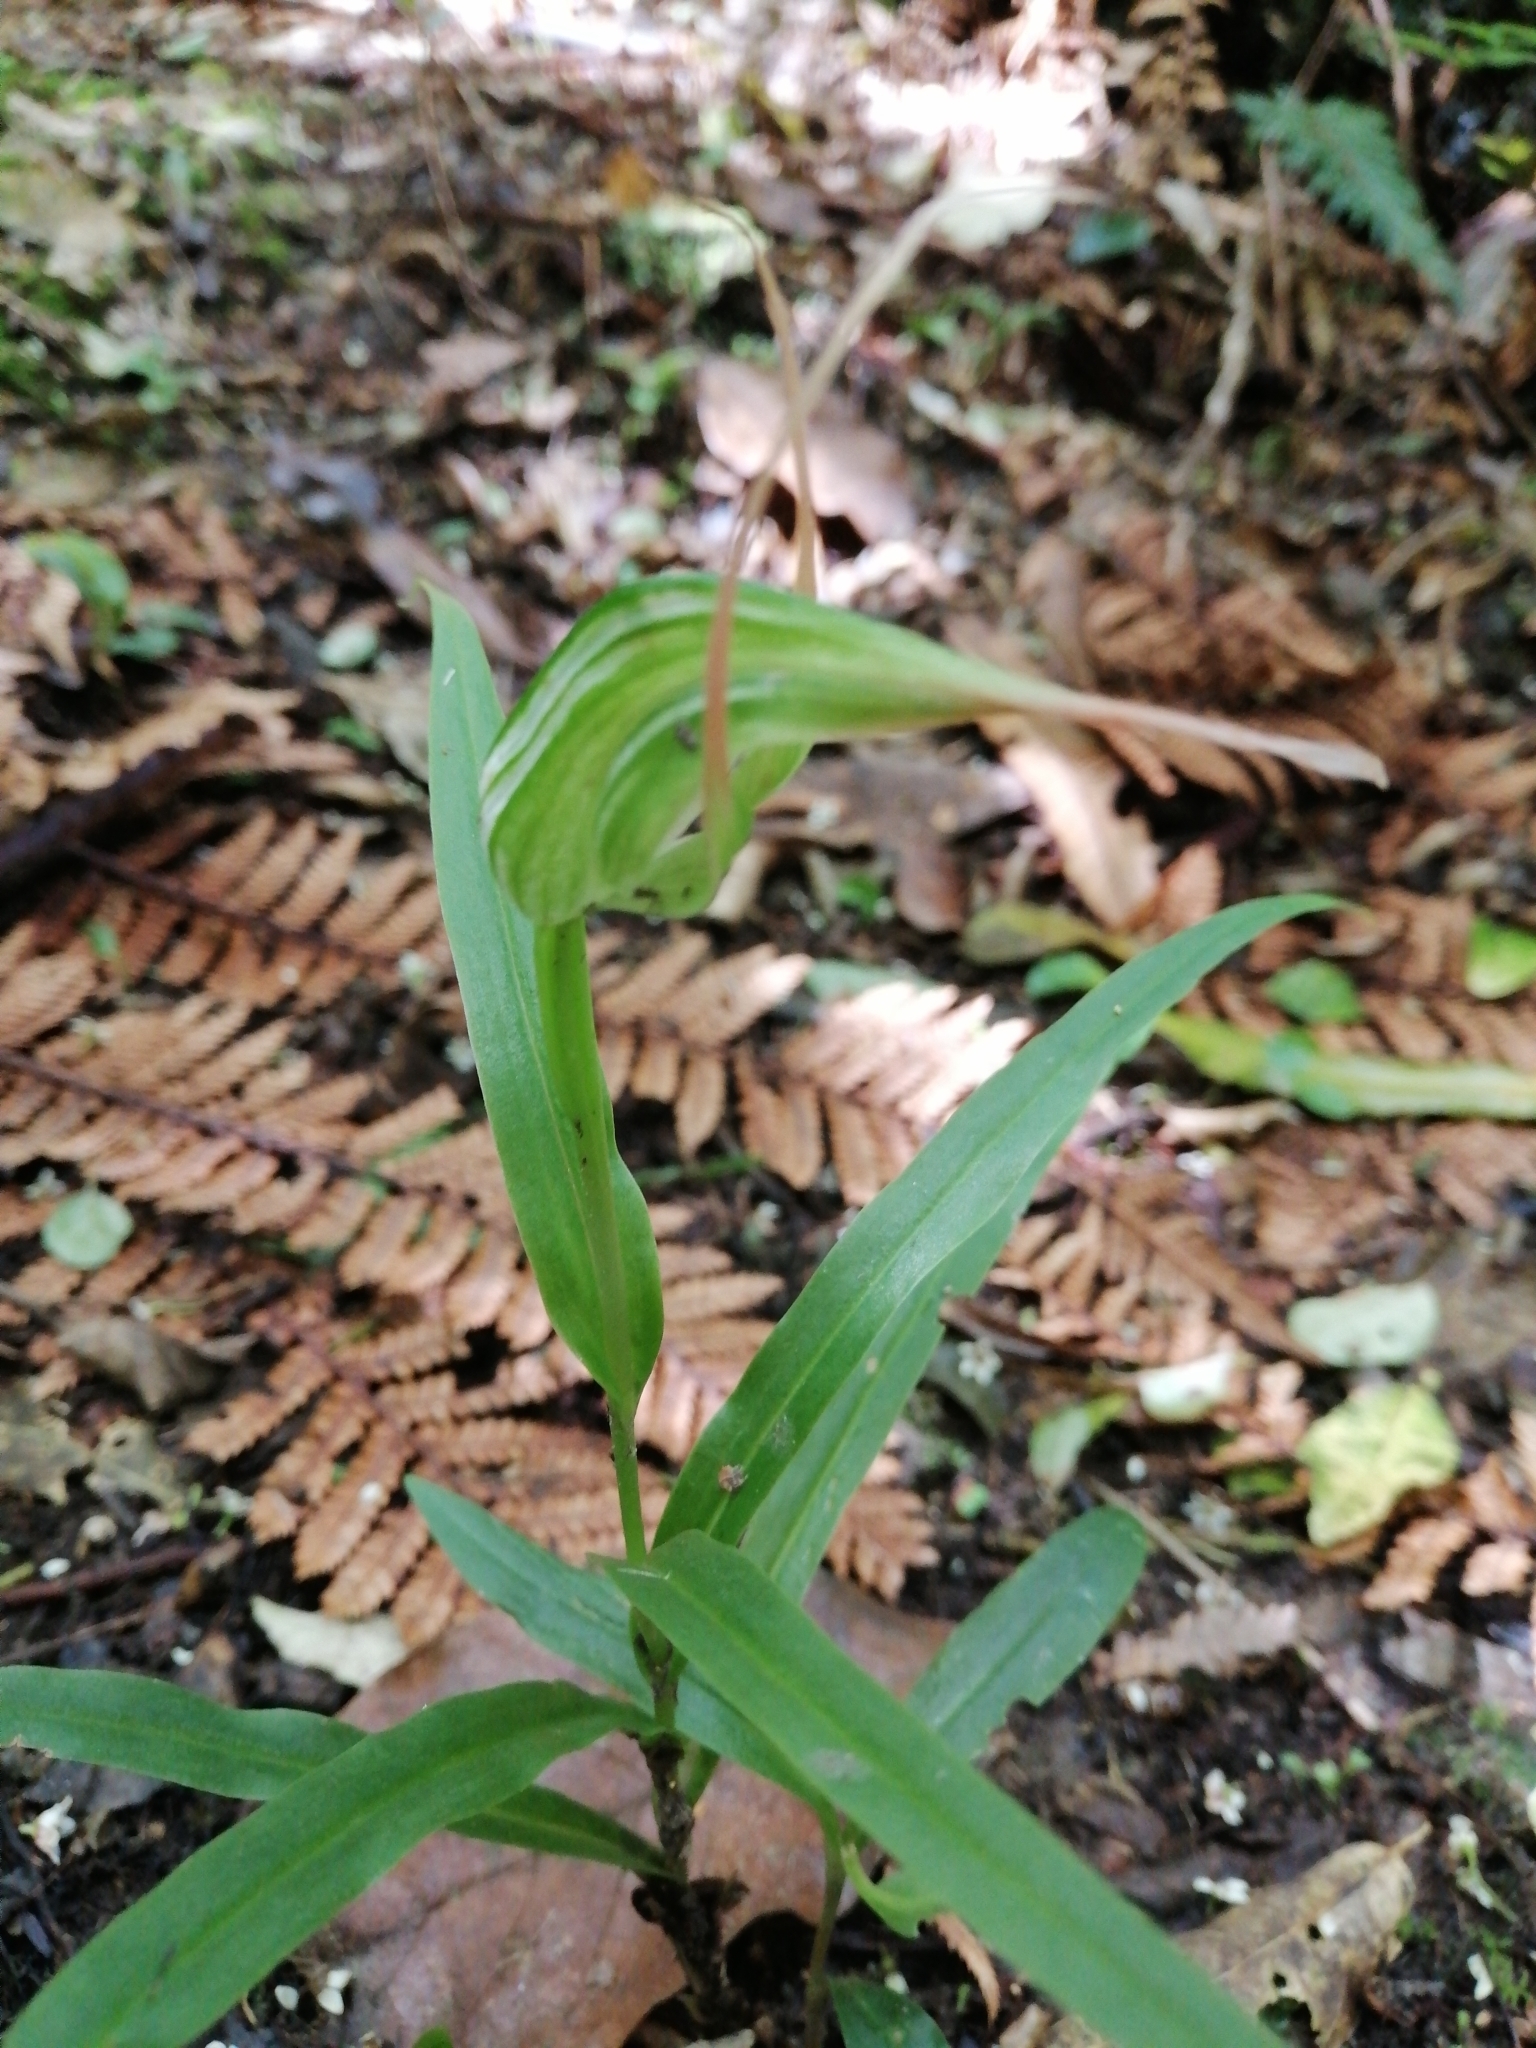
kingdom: Plantae
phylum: Tracheophyta
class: Liliopsida
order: Asparagales
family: Orchidaceae
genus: Pterostylis
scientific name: Pterostylis banksii
